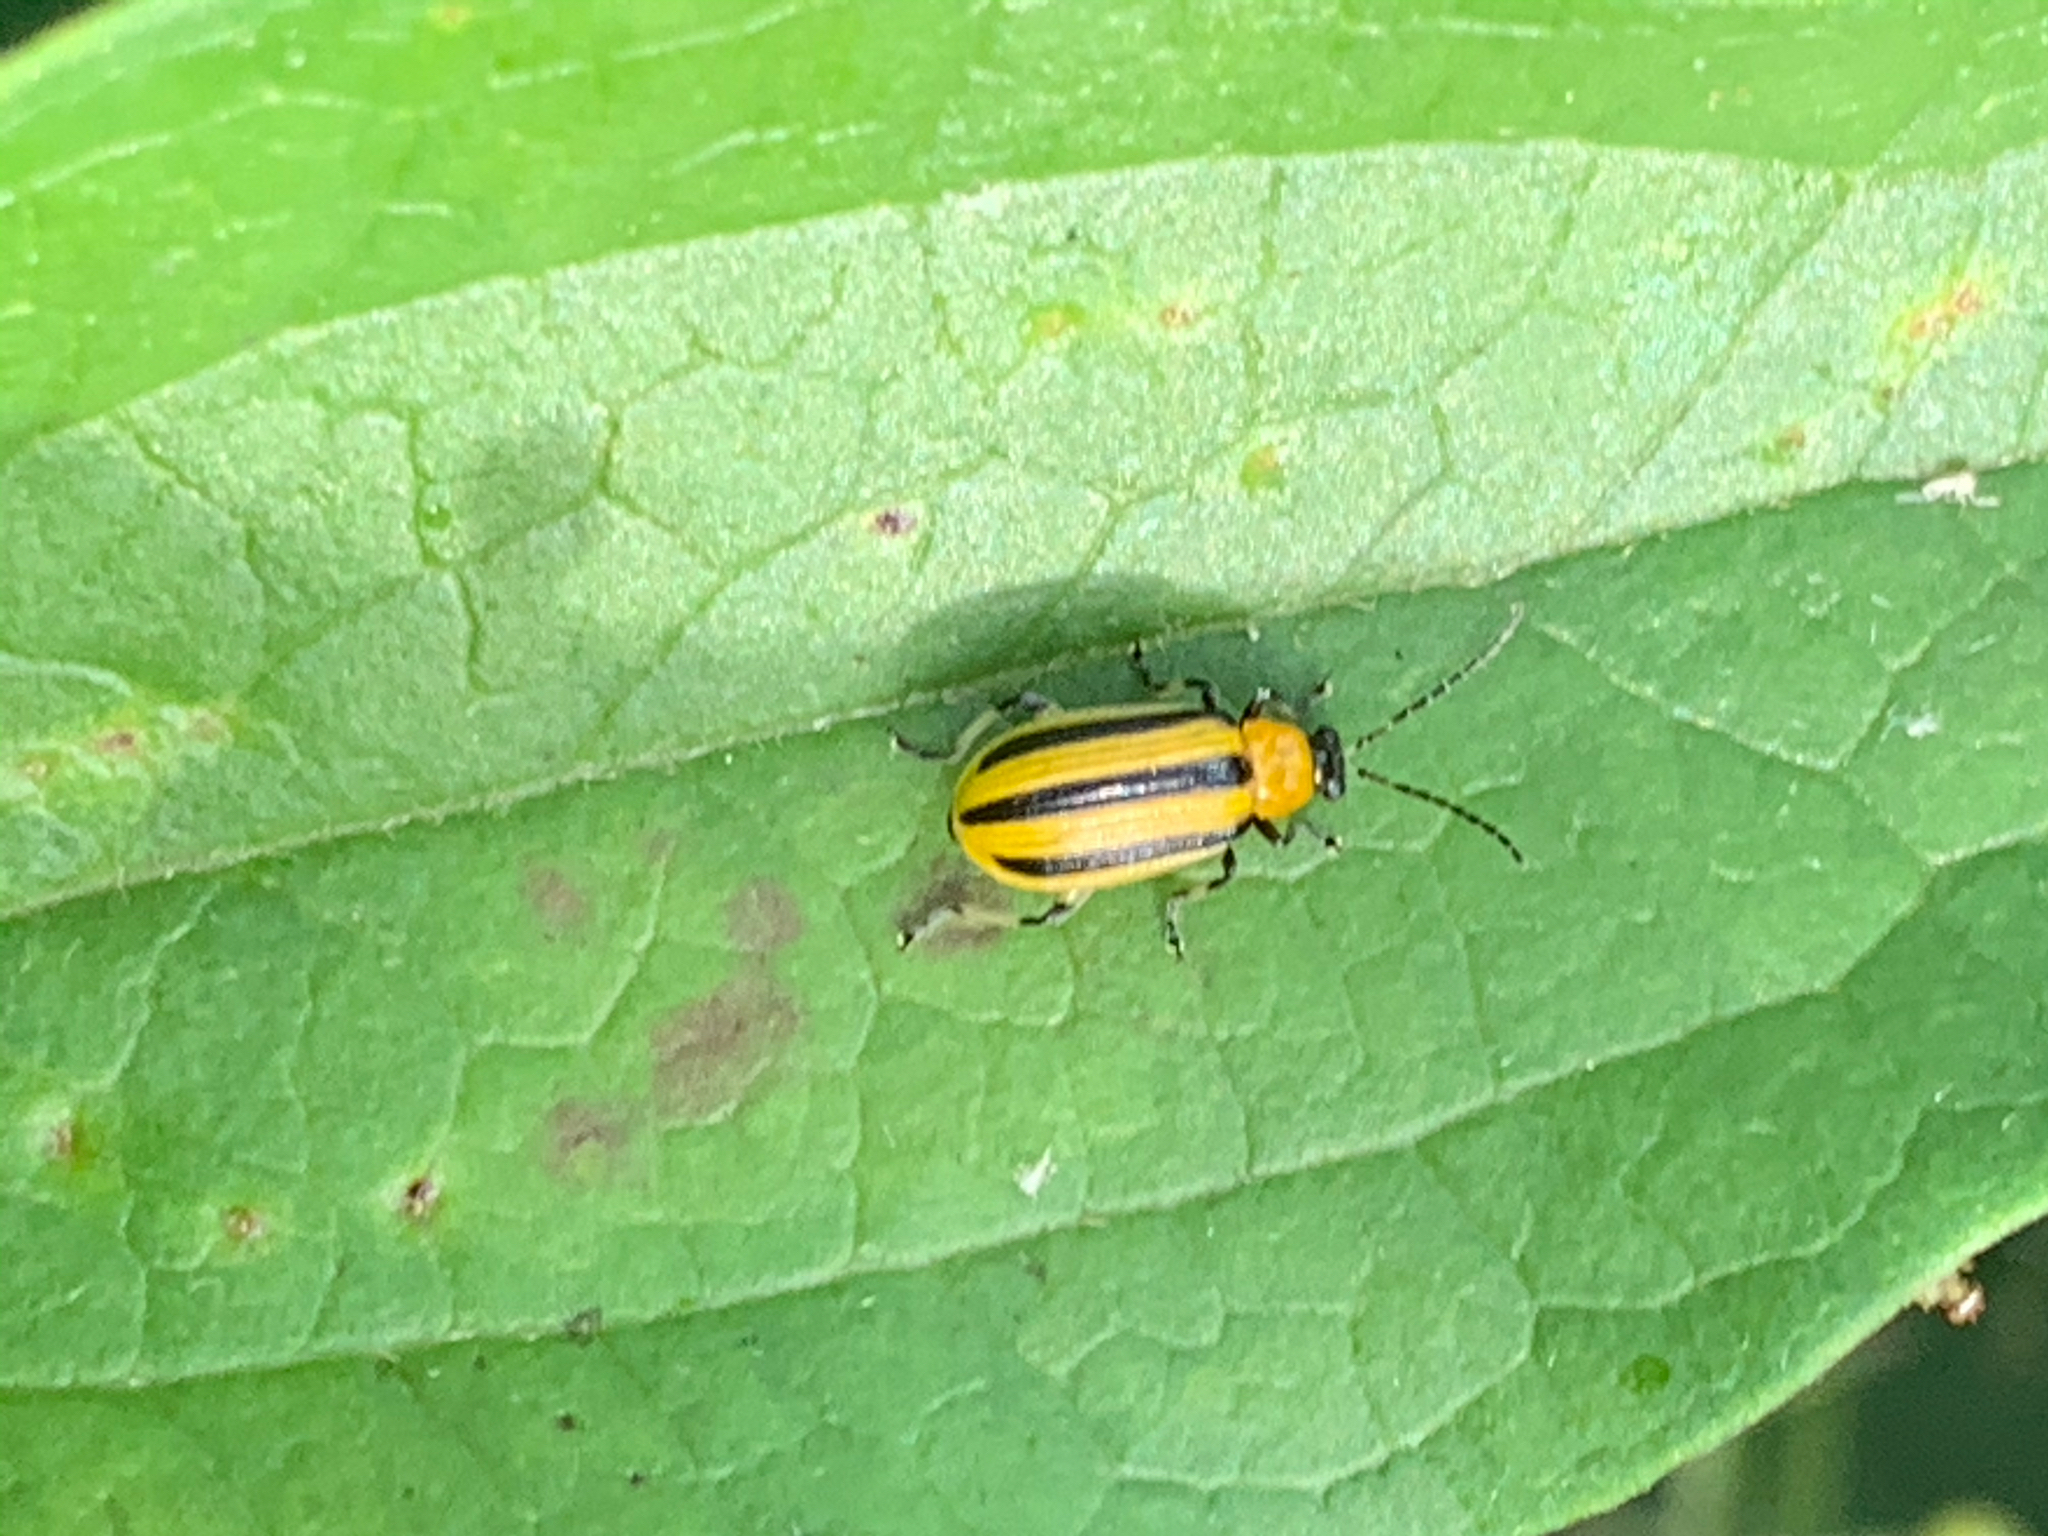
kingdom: Animalia
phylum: Arthropoda
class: Insecta
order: Coleoptera
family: Chrysomelidae
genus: Acalymma
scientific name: Acalymma vittatum
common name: Striped cucumber beetle
